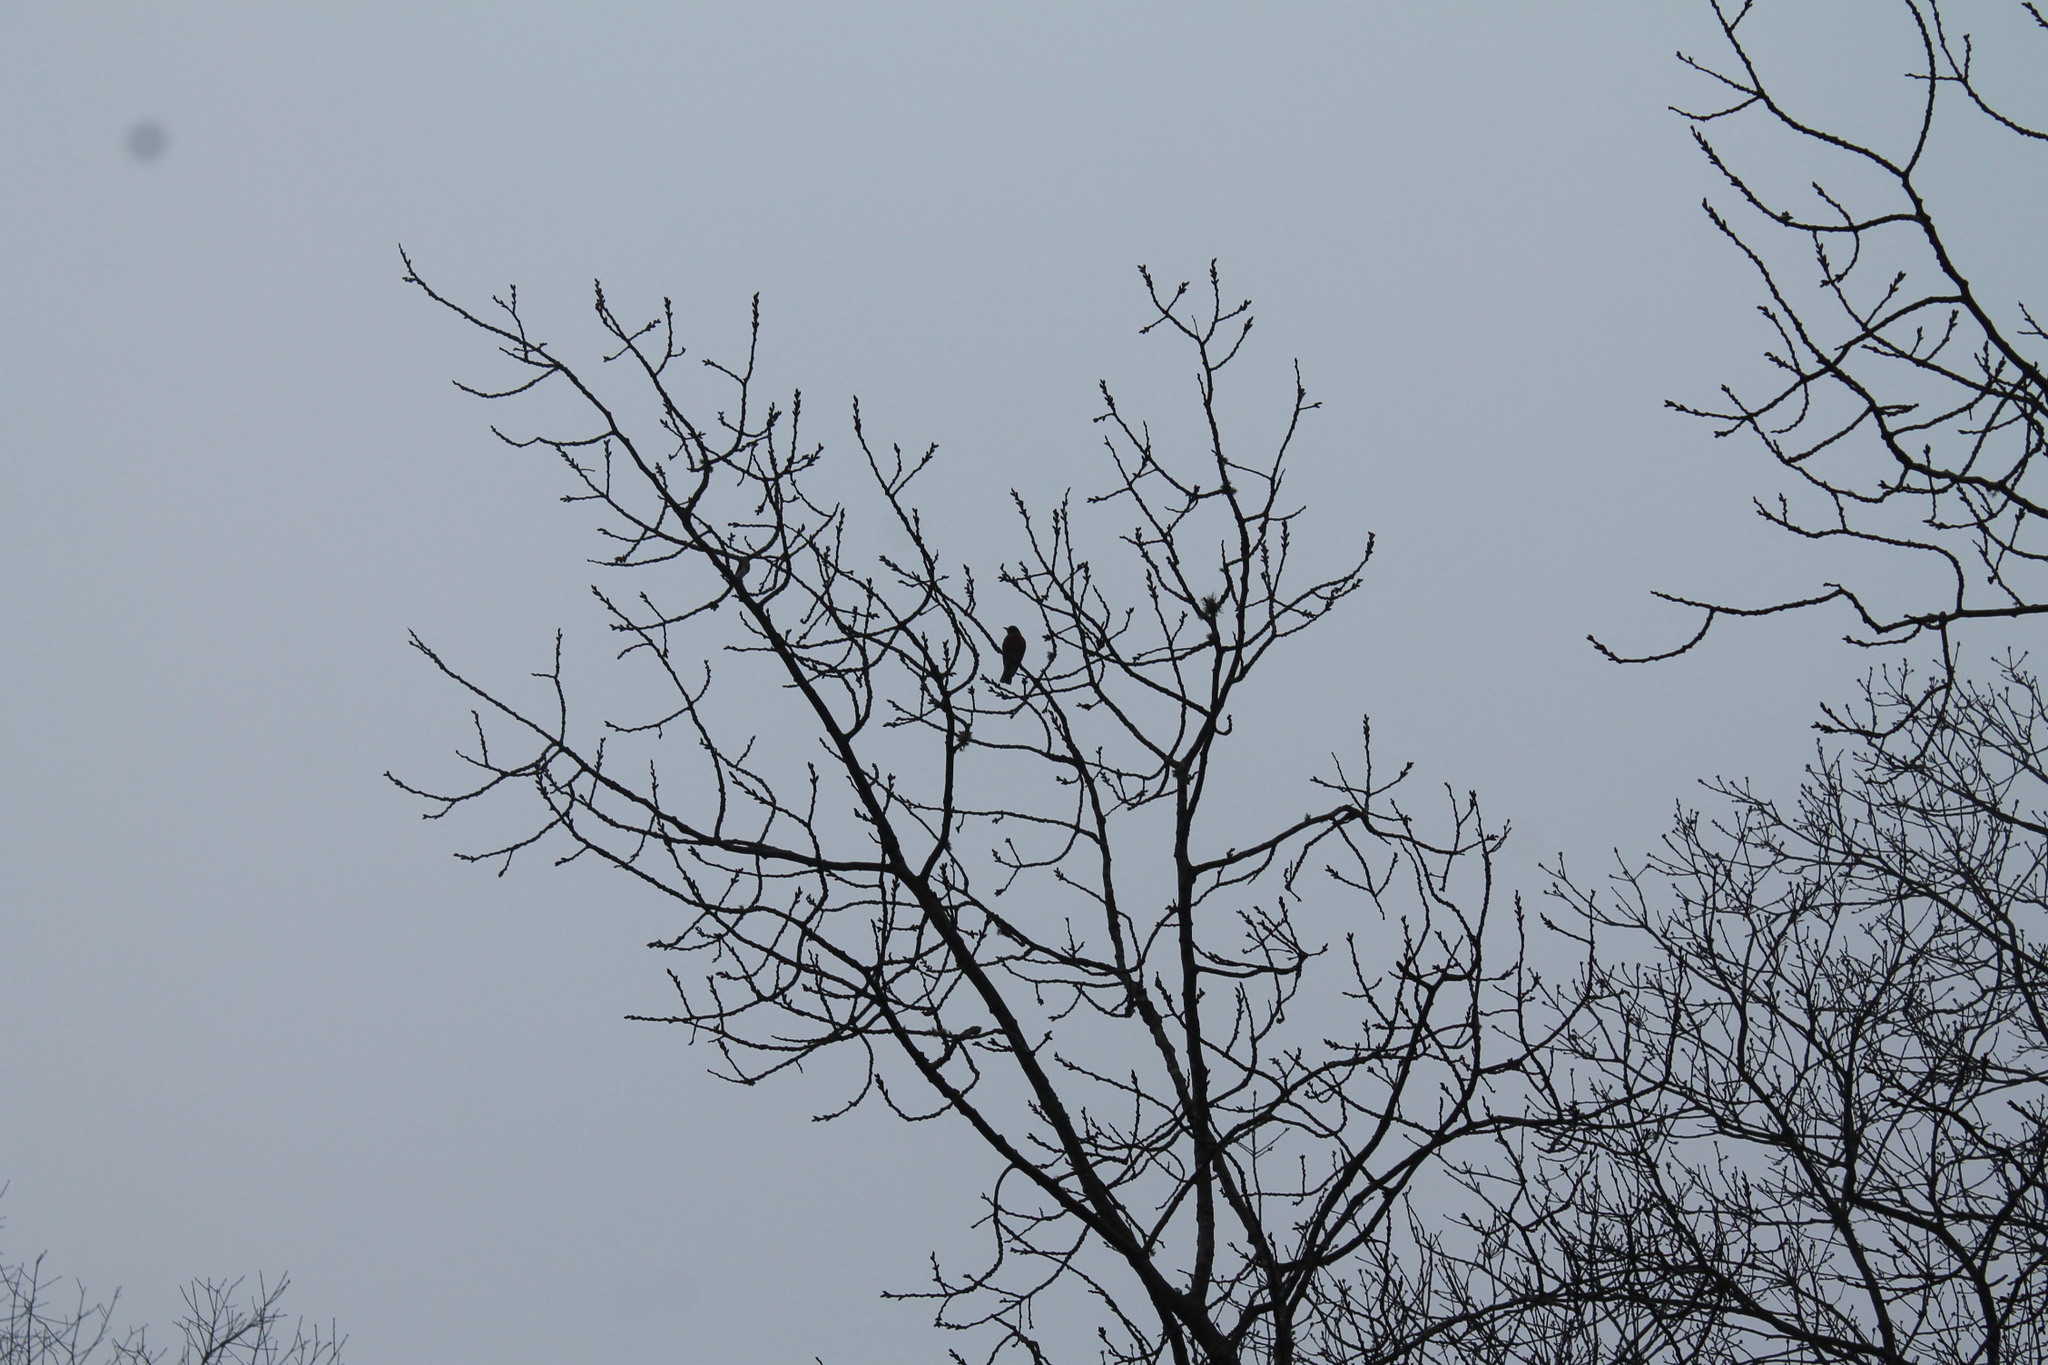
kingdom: Animalia
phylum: Chordata
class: Aves
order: Passeriformes
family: Turdidae
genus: Turdus
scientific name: Turdus migratorius
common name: American robin
